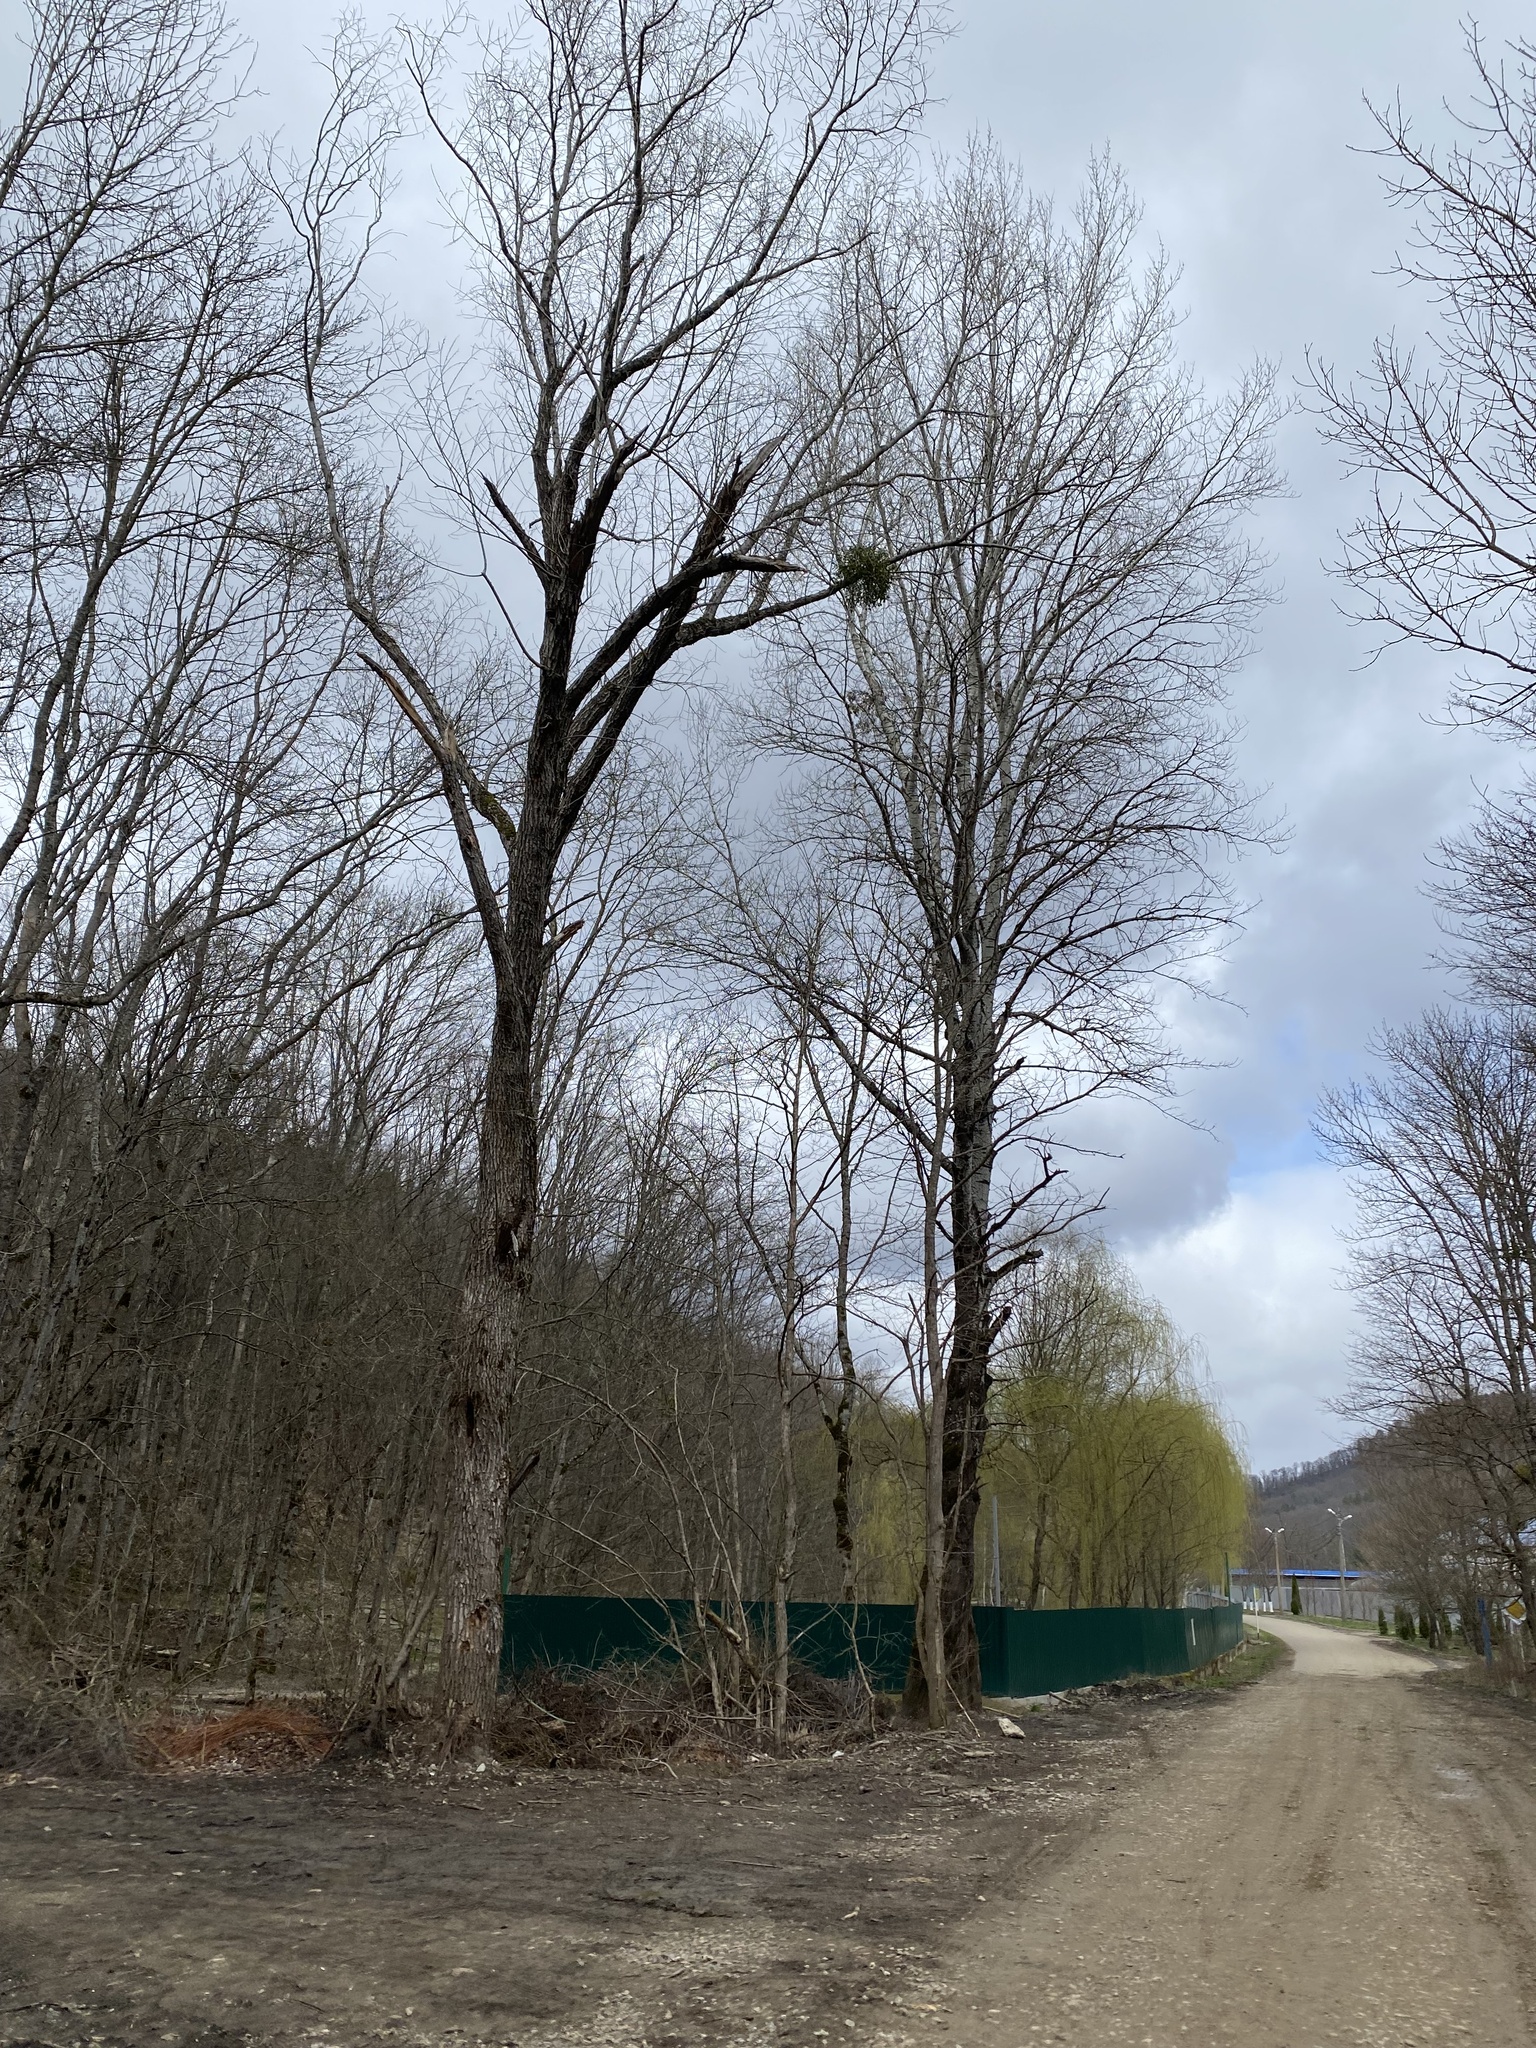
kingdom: Plantae
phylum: Tracheophyta
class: Magnoliopsida
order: Santalales
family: Viscaceae
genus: Viscum
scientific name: Viscum album
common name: Mistletoe
